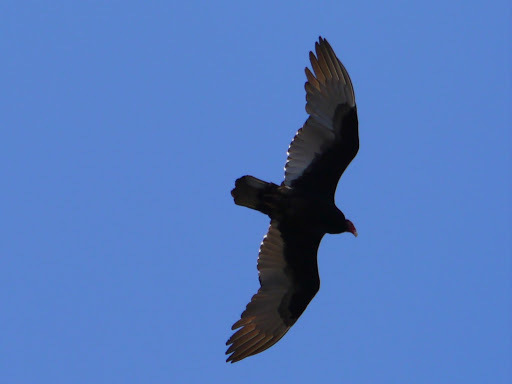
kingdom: Animalia
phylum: Chordata
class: Aves
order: Accipitriformes
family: Cathartidae
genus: Cathartes
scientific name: Cathartes aura
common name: Turkey vulture
